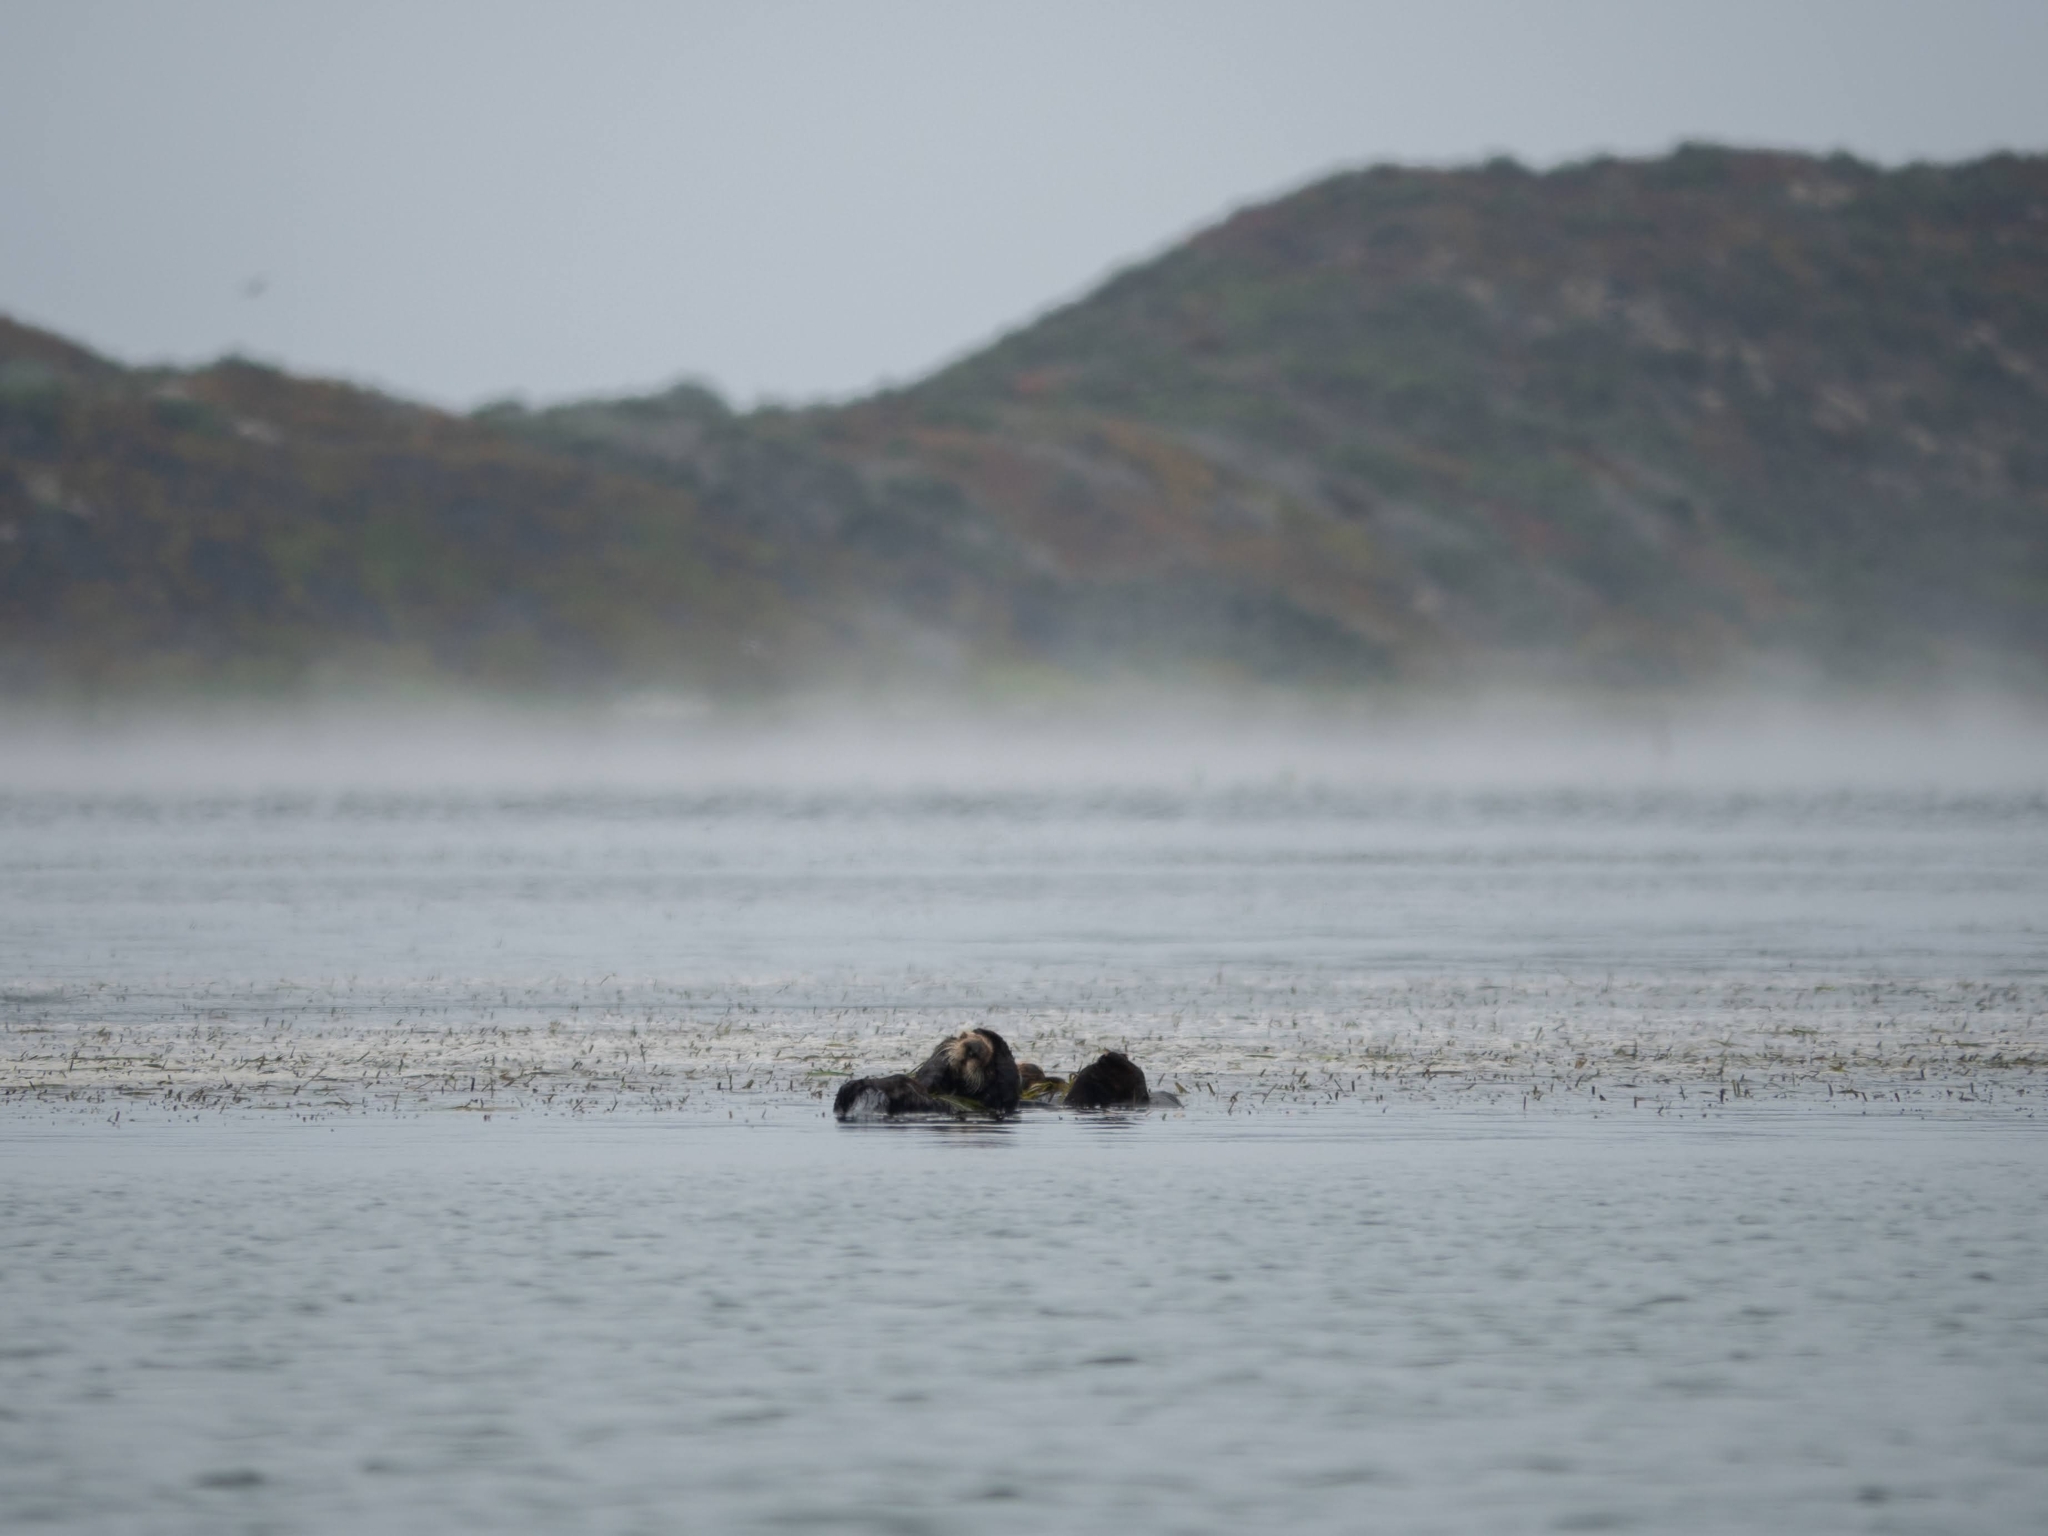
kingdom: Animalia
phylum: Chordata
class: Mammalia
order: Carnivora
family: Mustelidae
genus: Enhydra
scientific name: Enhydra lutris
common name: Sea otter
